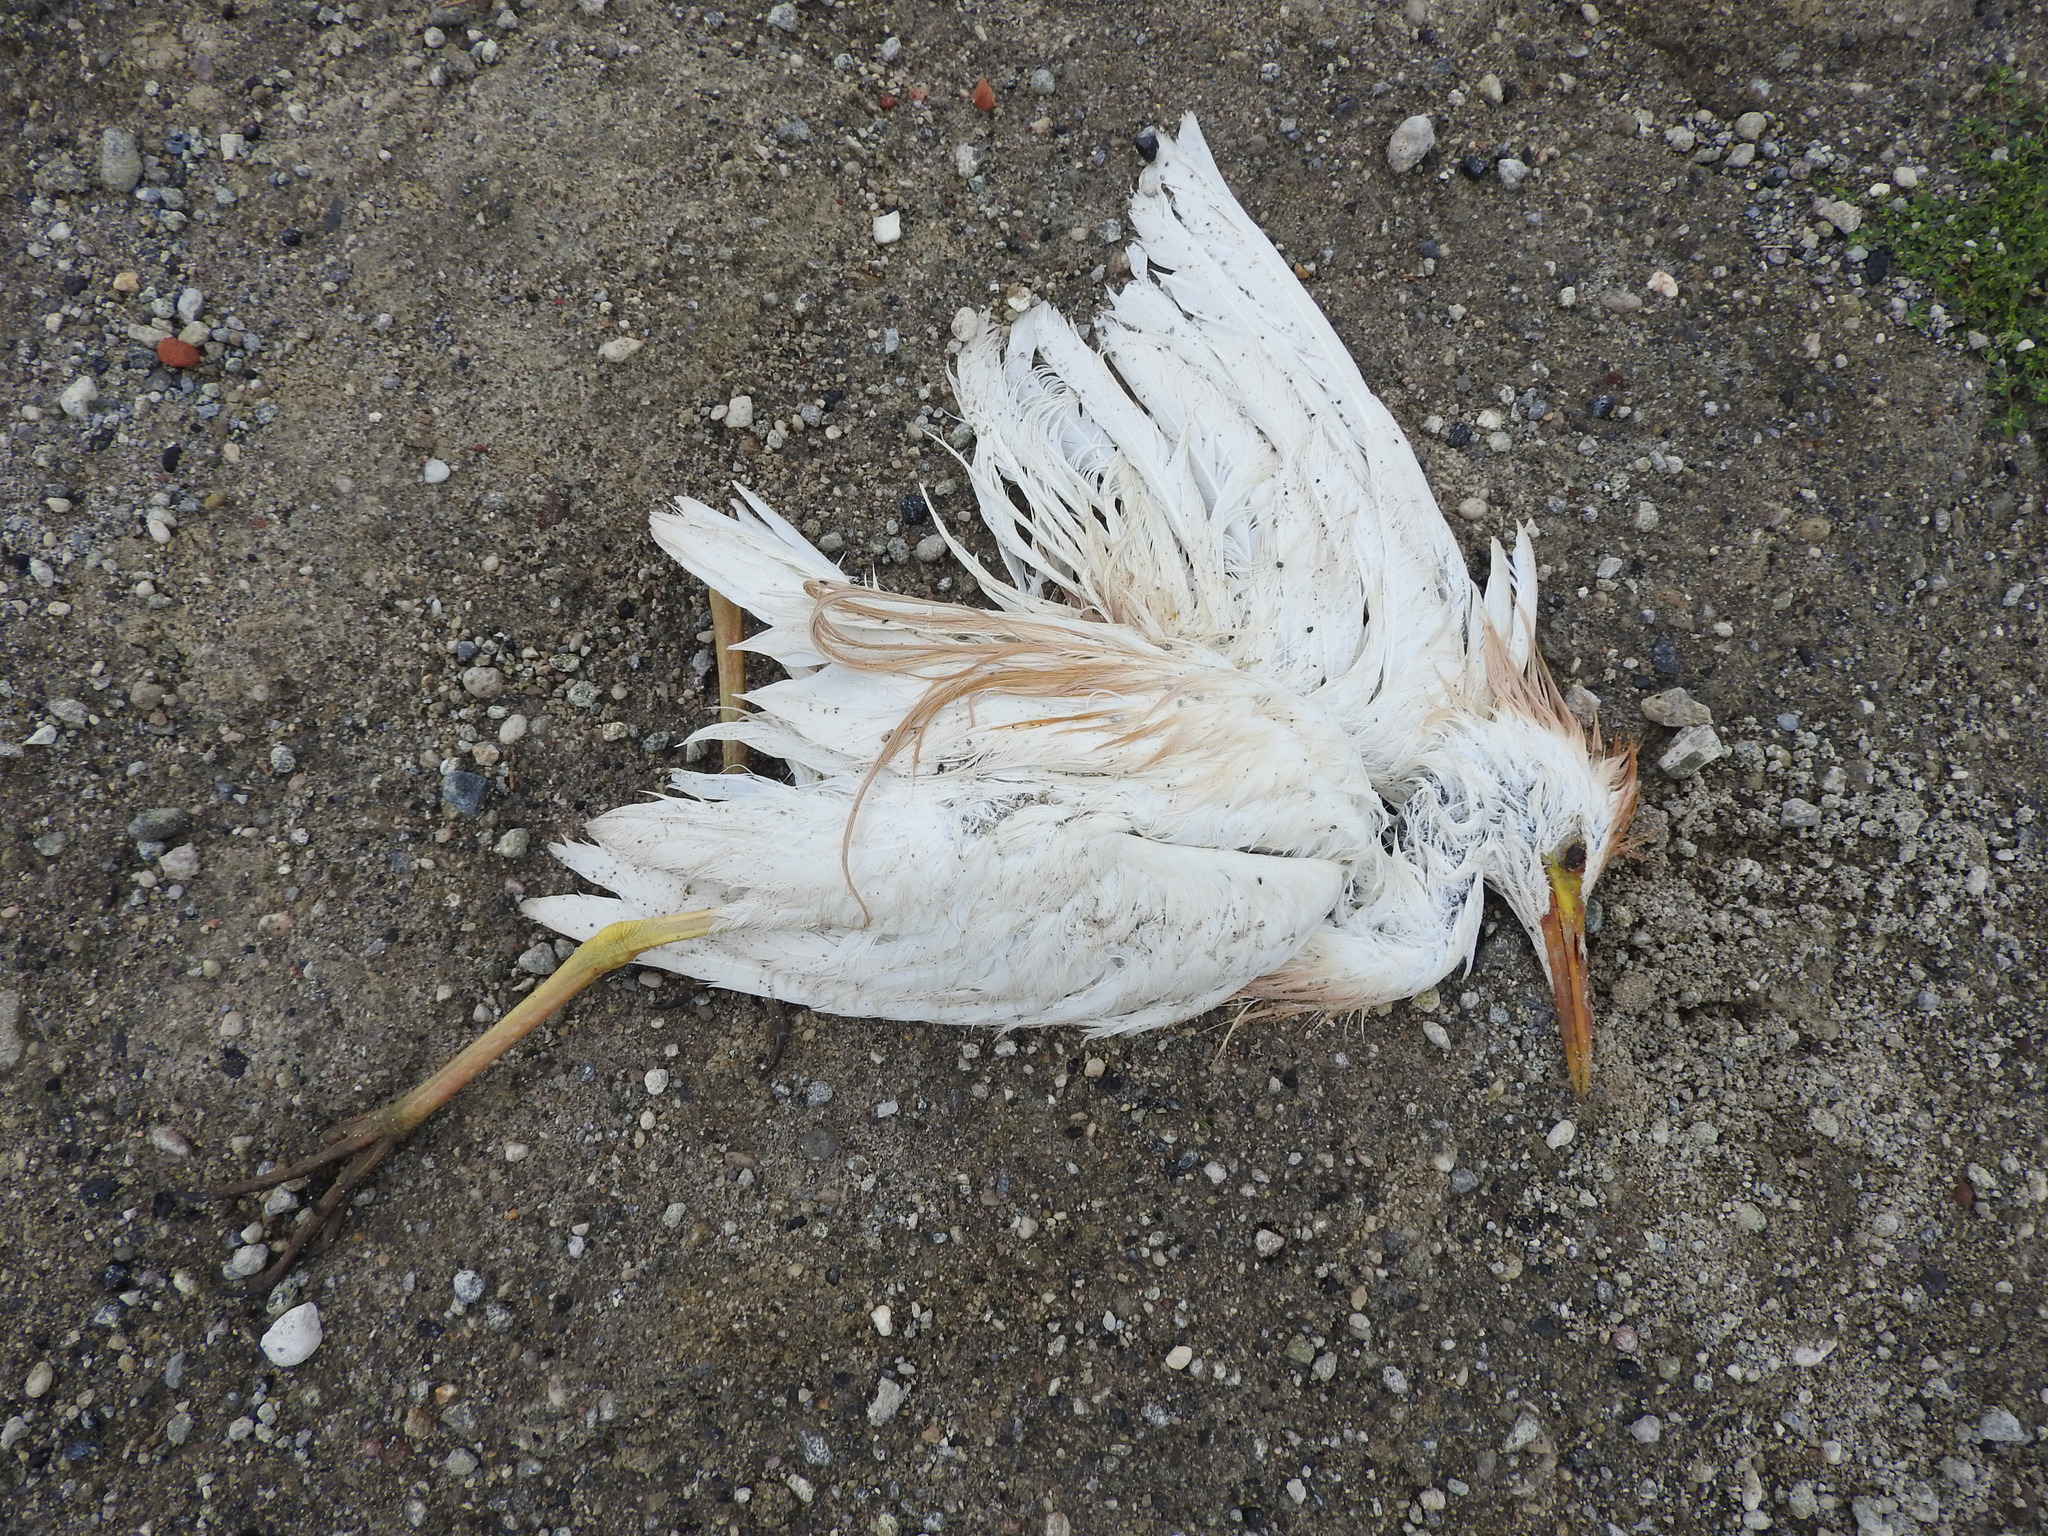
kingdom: Animalia
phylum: Chordata
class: Aves
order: Pelecaniformes
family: Ardeidae
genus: Bubulcus
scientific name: Bubulcus ibis
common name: Cattle egret
